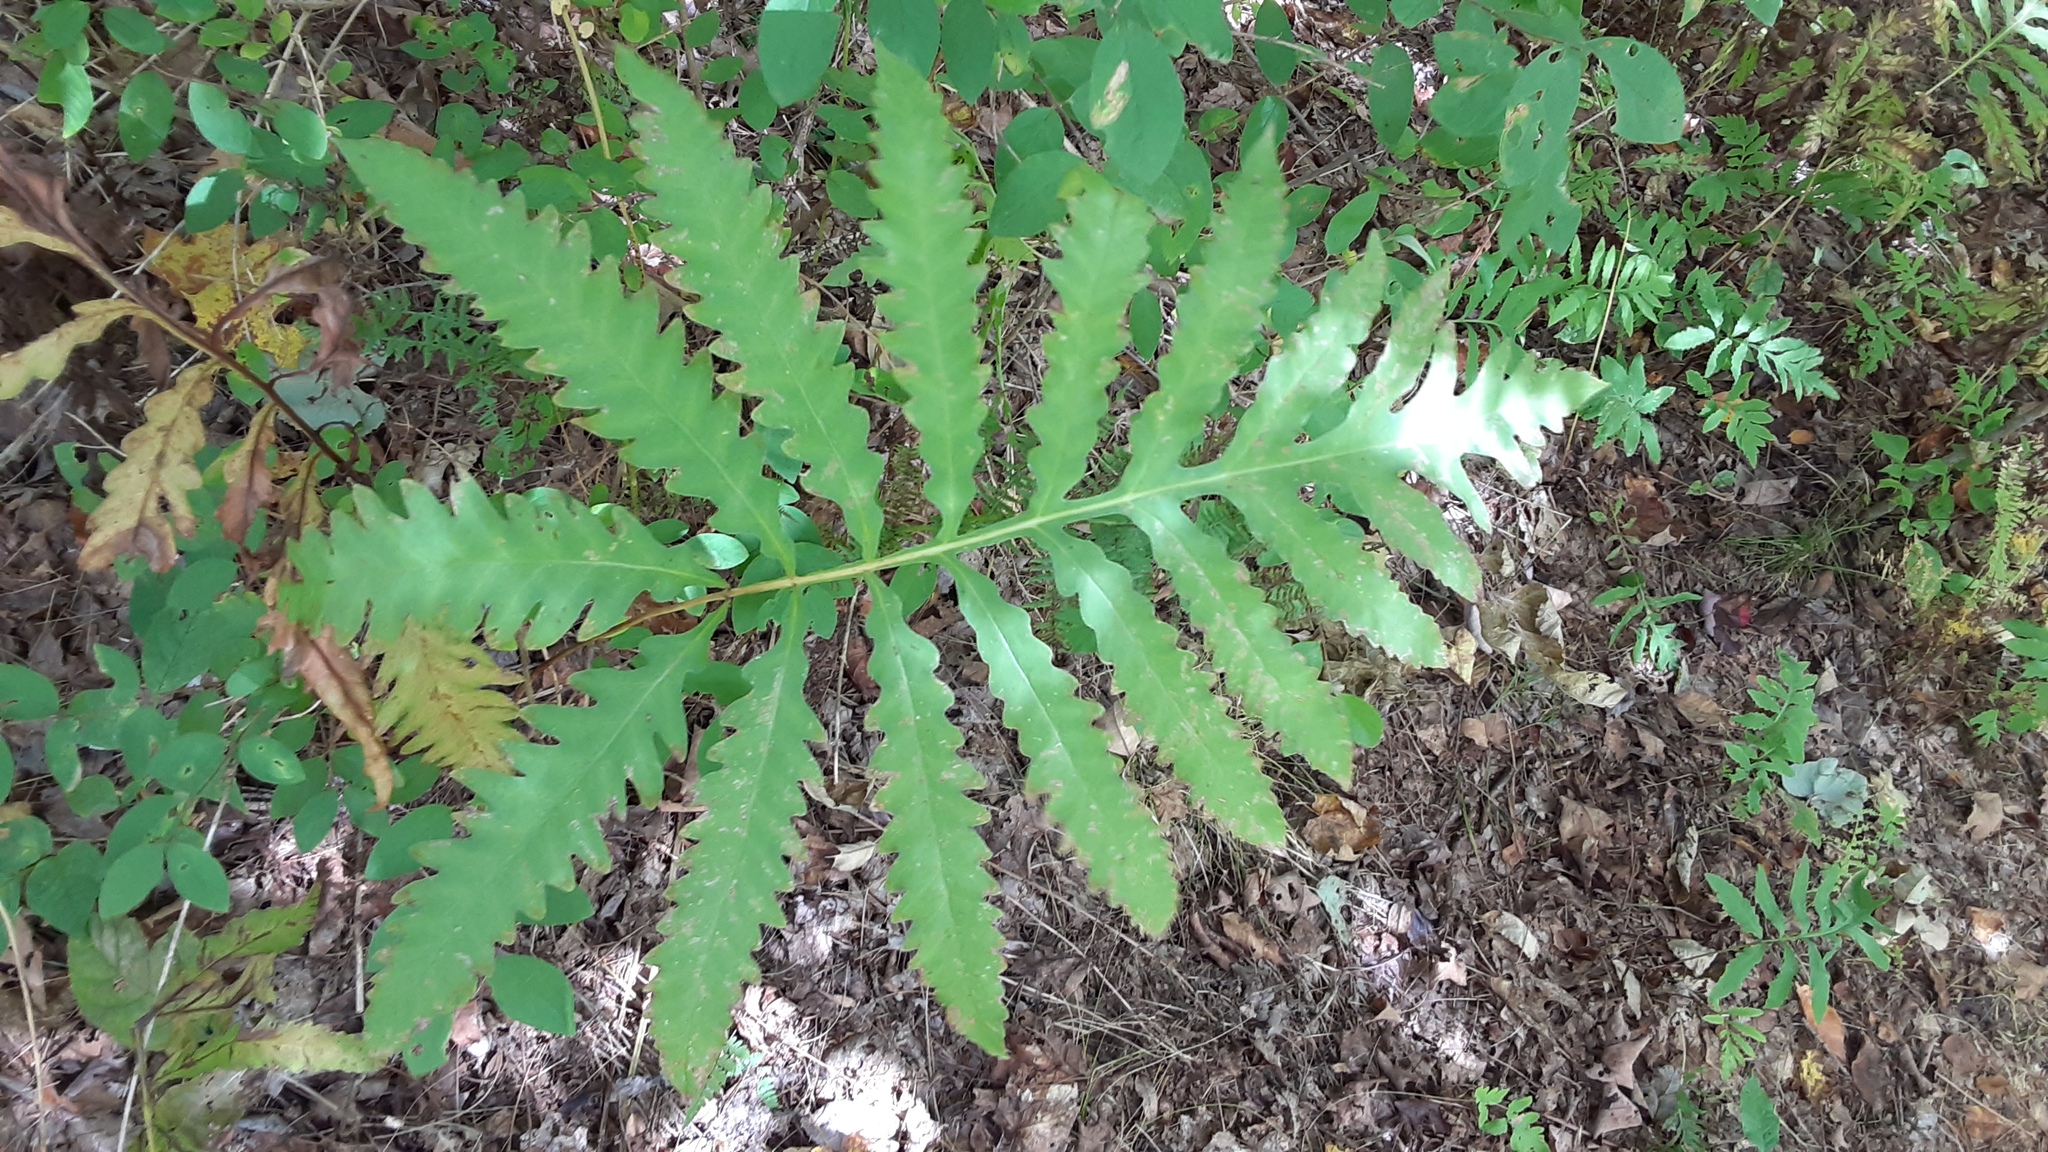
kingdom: Plantae
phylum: Tracheophyta
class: Polypodiopsida
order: Polypodiales
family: Onocleaceae
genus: Onoclea
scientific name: Onoclea sensibilis
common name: Sensitive fern
